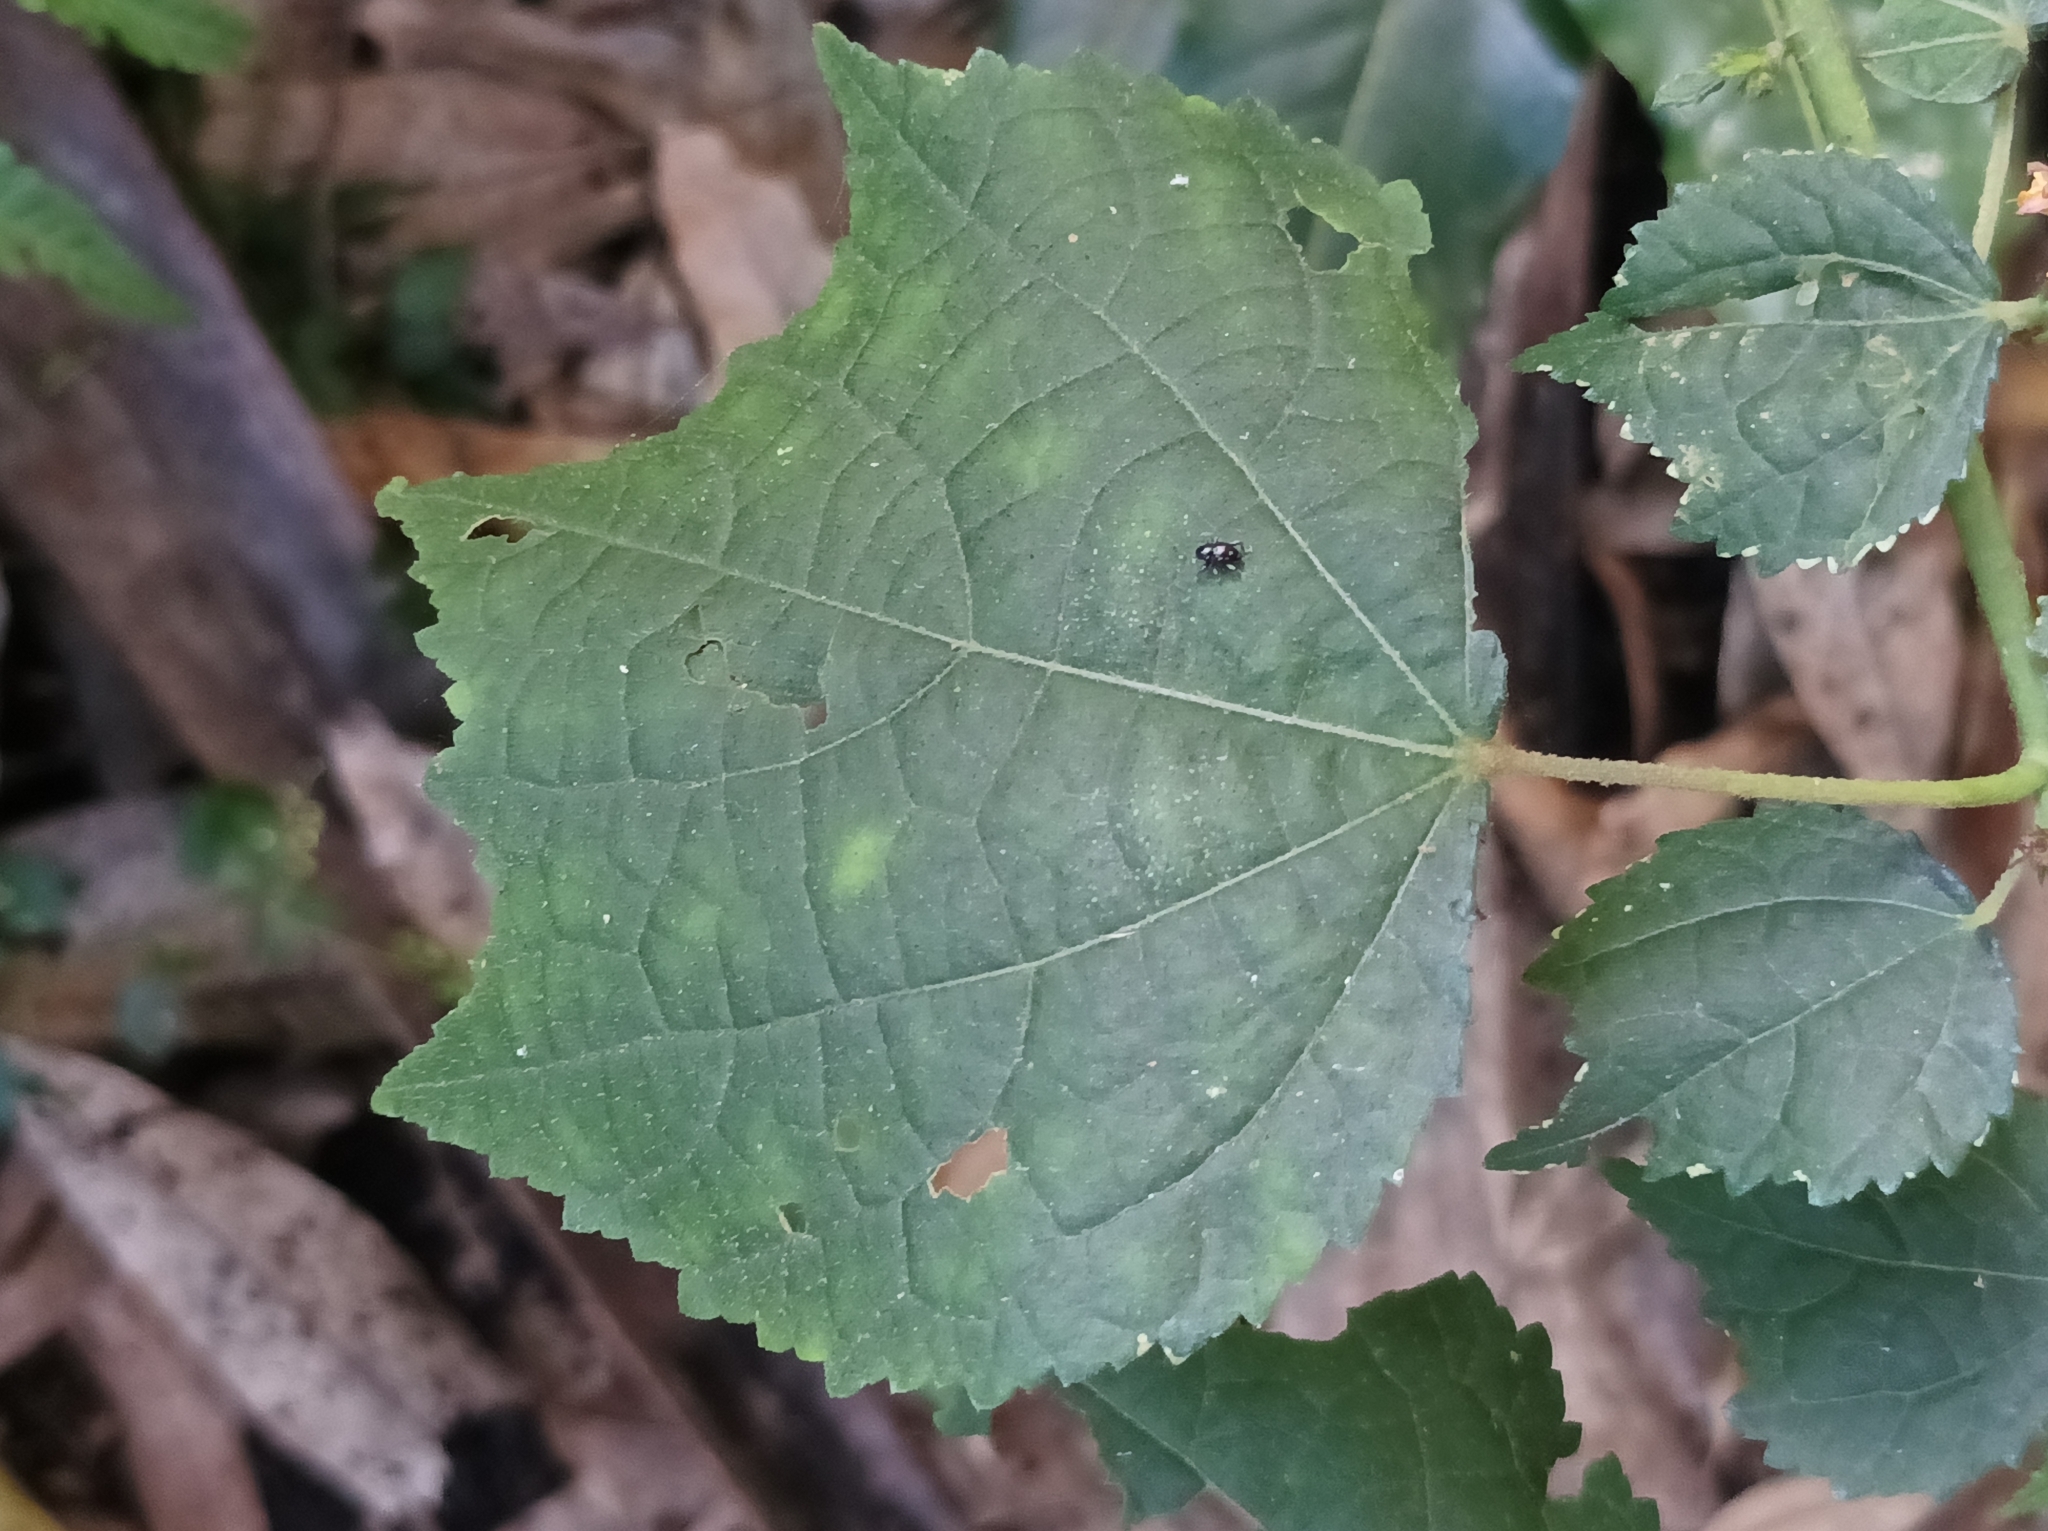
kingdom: Plantae
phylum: Tracheophyta
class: Magnoliopsida
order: Malvales
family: Malvaceae
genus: Triumfetta
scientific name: Triumfetta rhomboidea
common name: Diamond burbark
